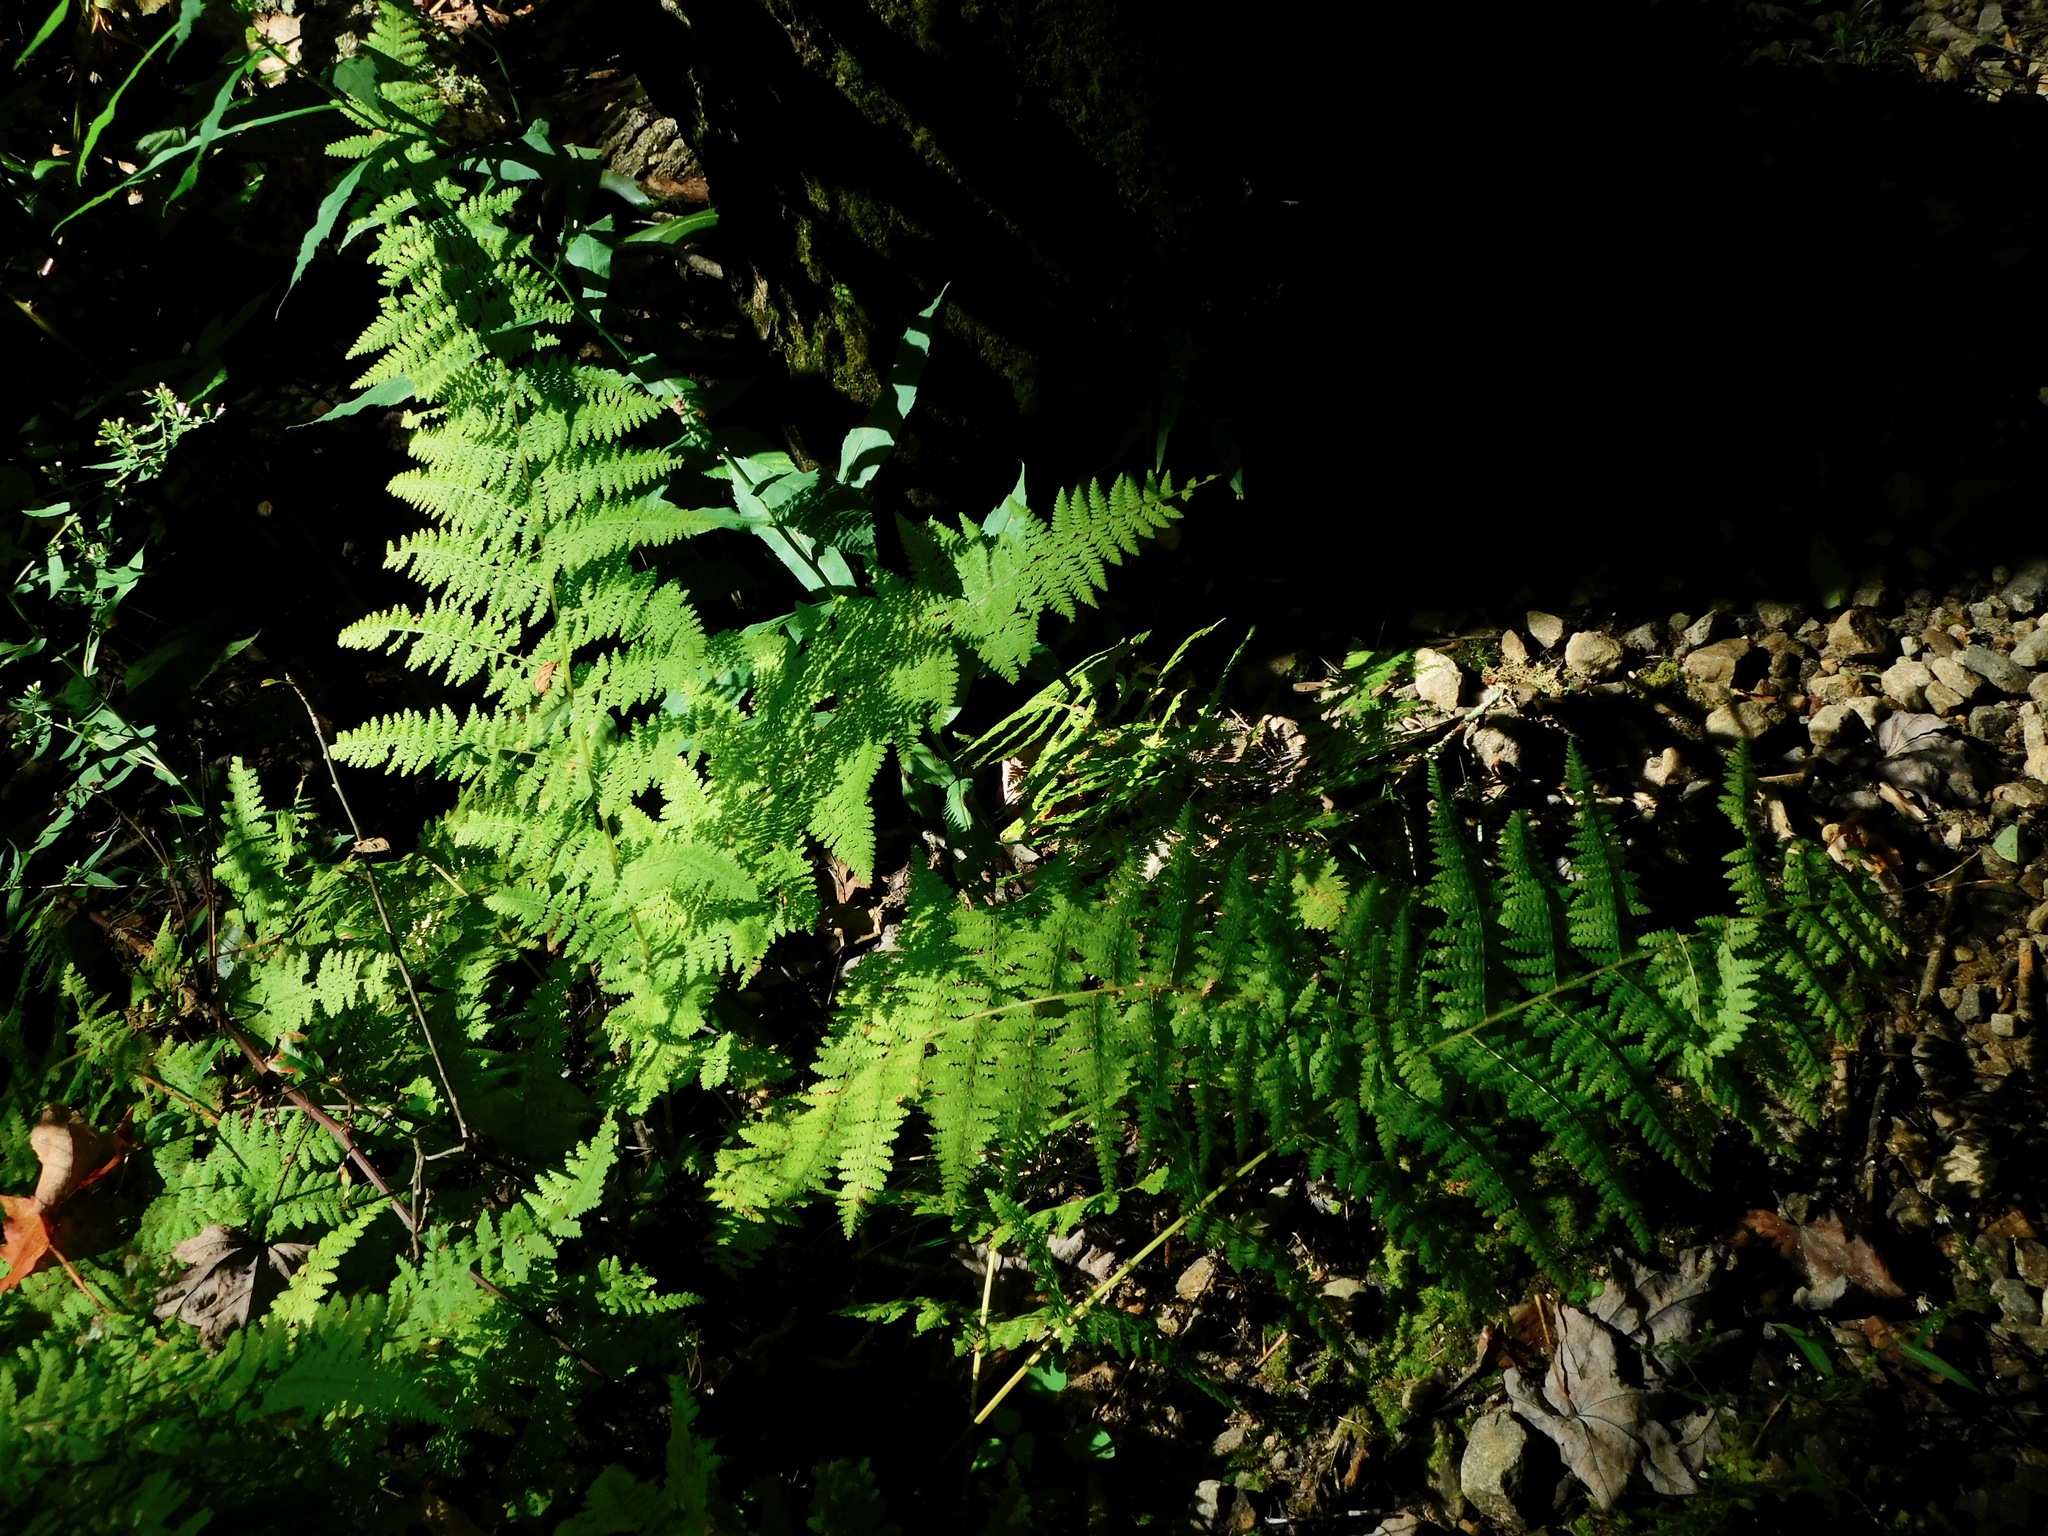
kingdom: Plantae
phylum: Tracheophyta
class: Polypodiopsida
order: Polypodiales
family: Dennstaedtiaceae
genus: Sitobolium
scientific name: Sitobolium punctilobum
